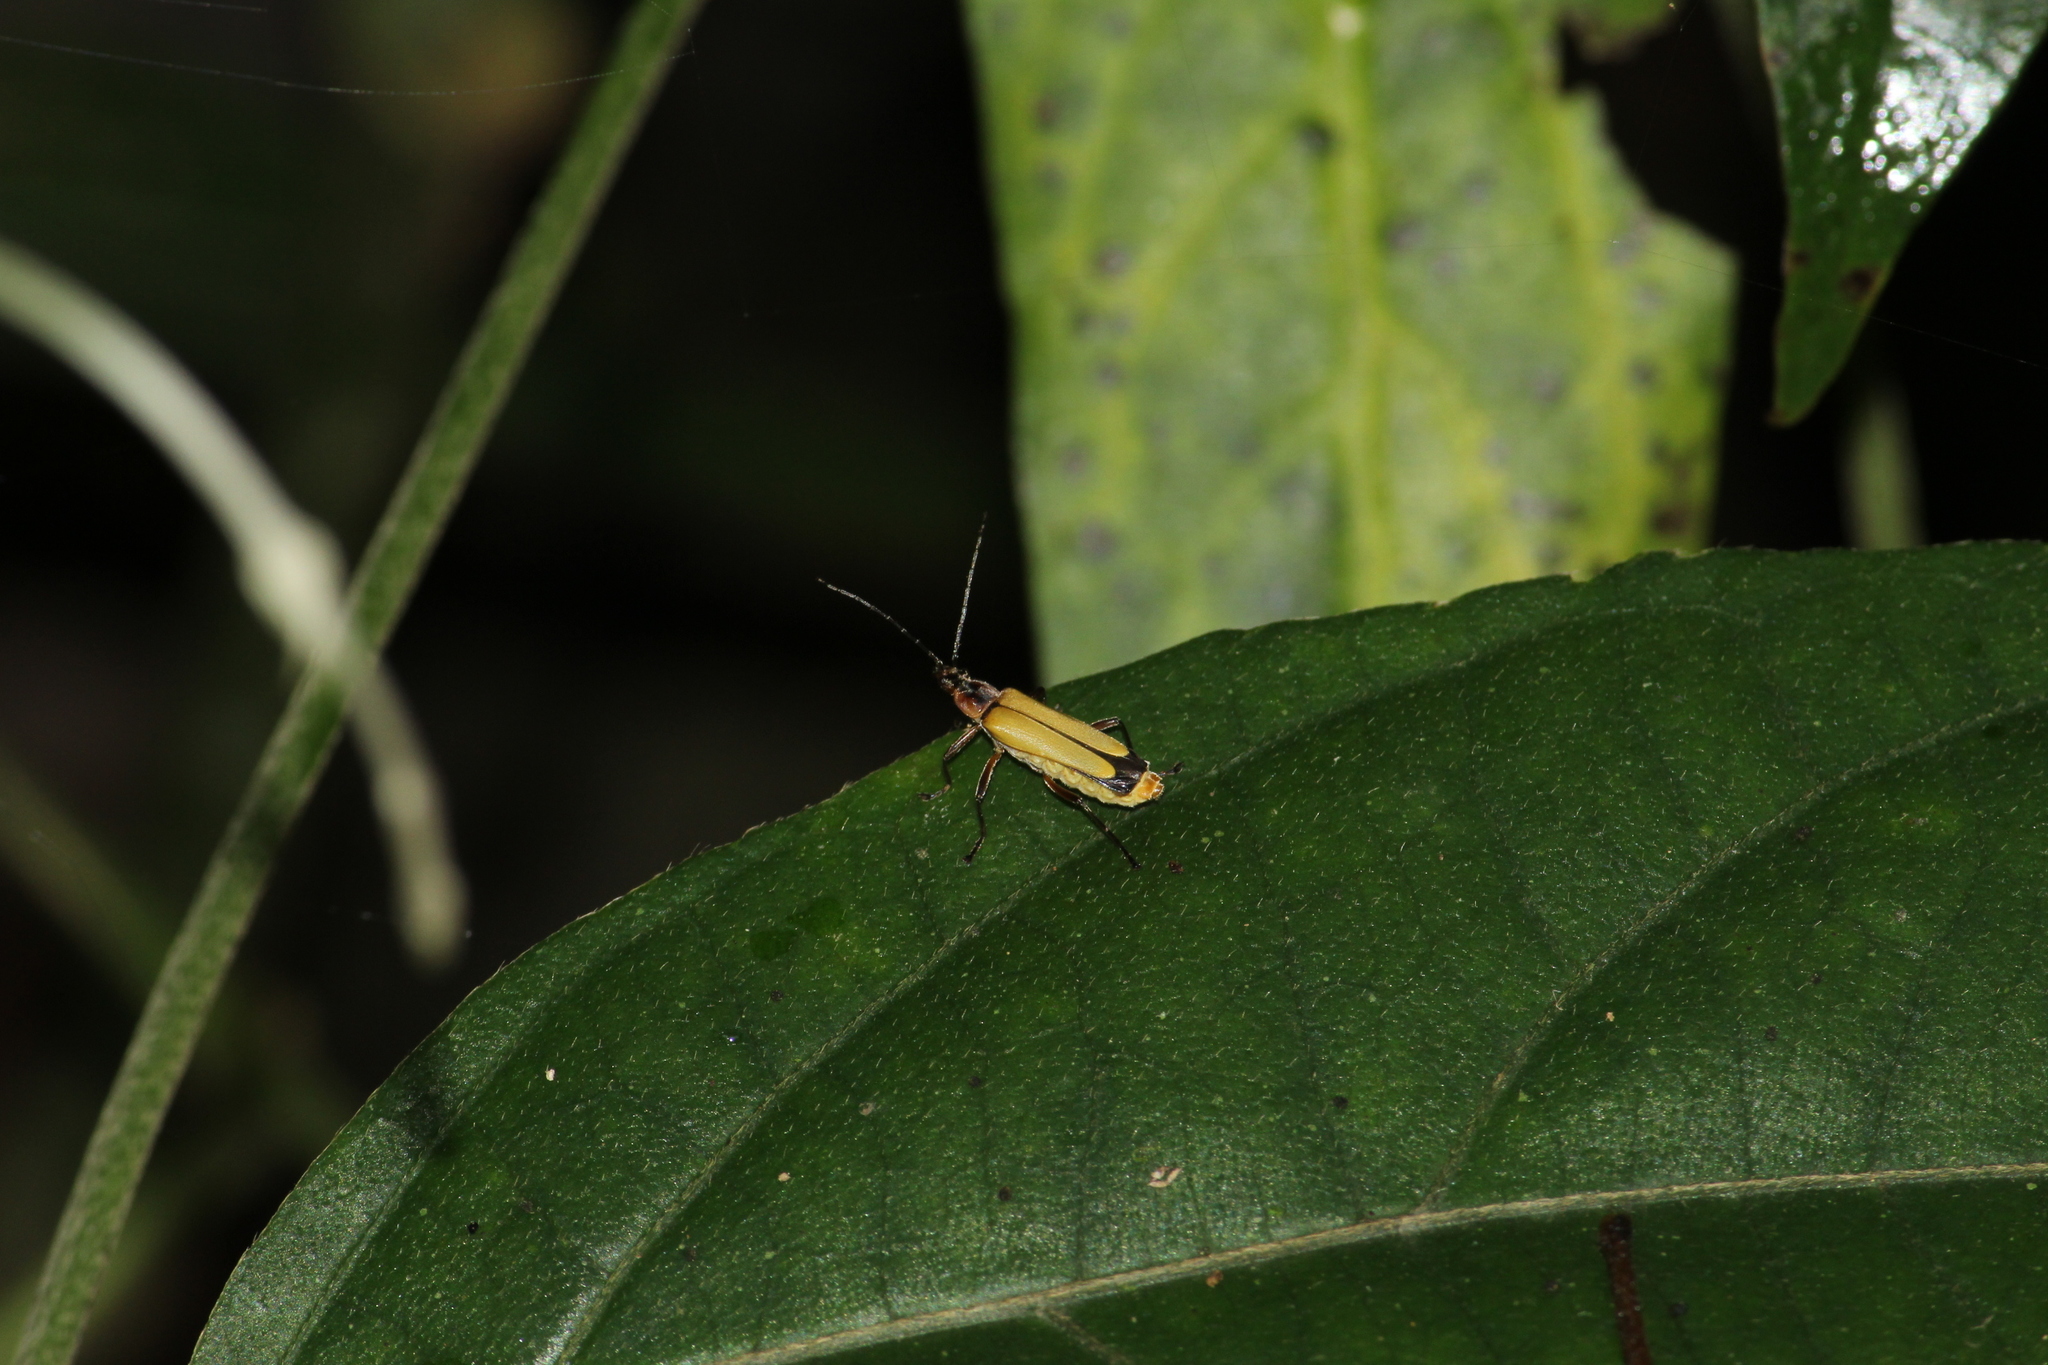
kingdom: Animalia
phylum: Arthropoda
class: Insecta
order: Coleoptera
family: Cantharidae
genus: Chauliognathus
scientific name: Chauliognathus
